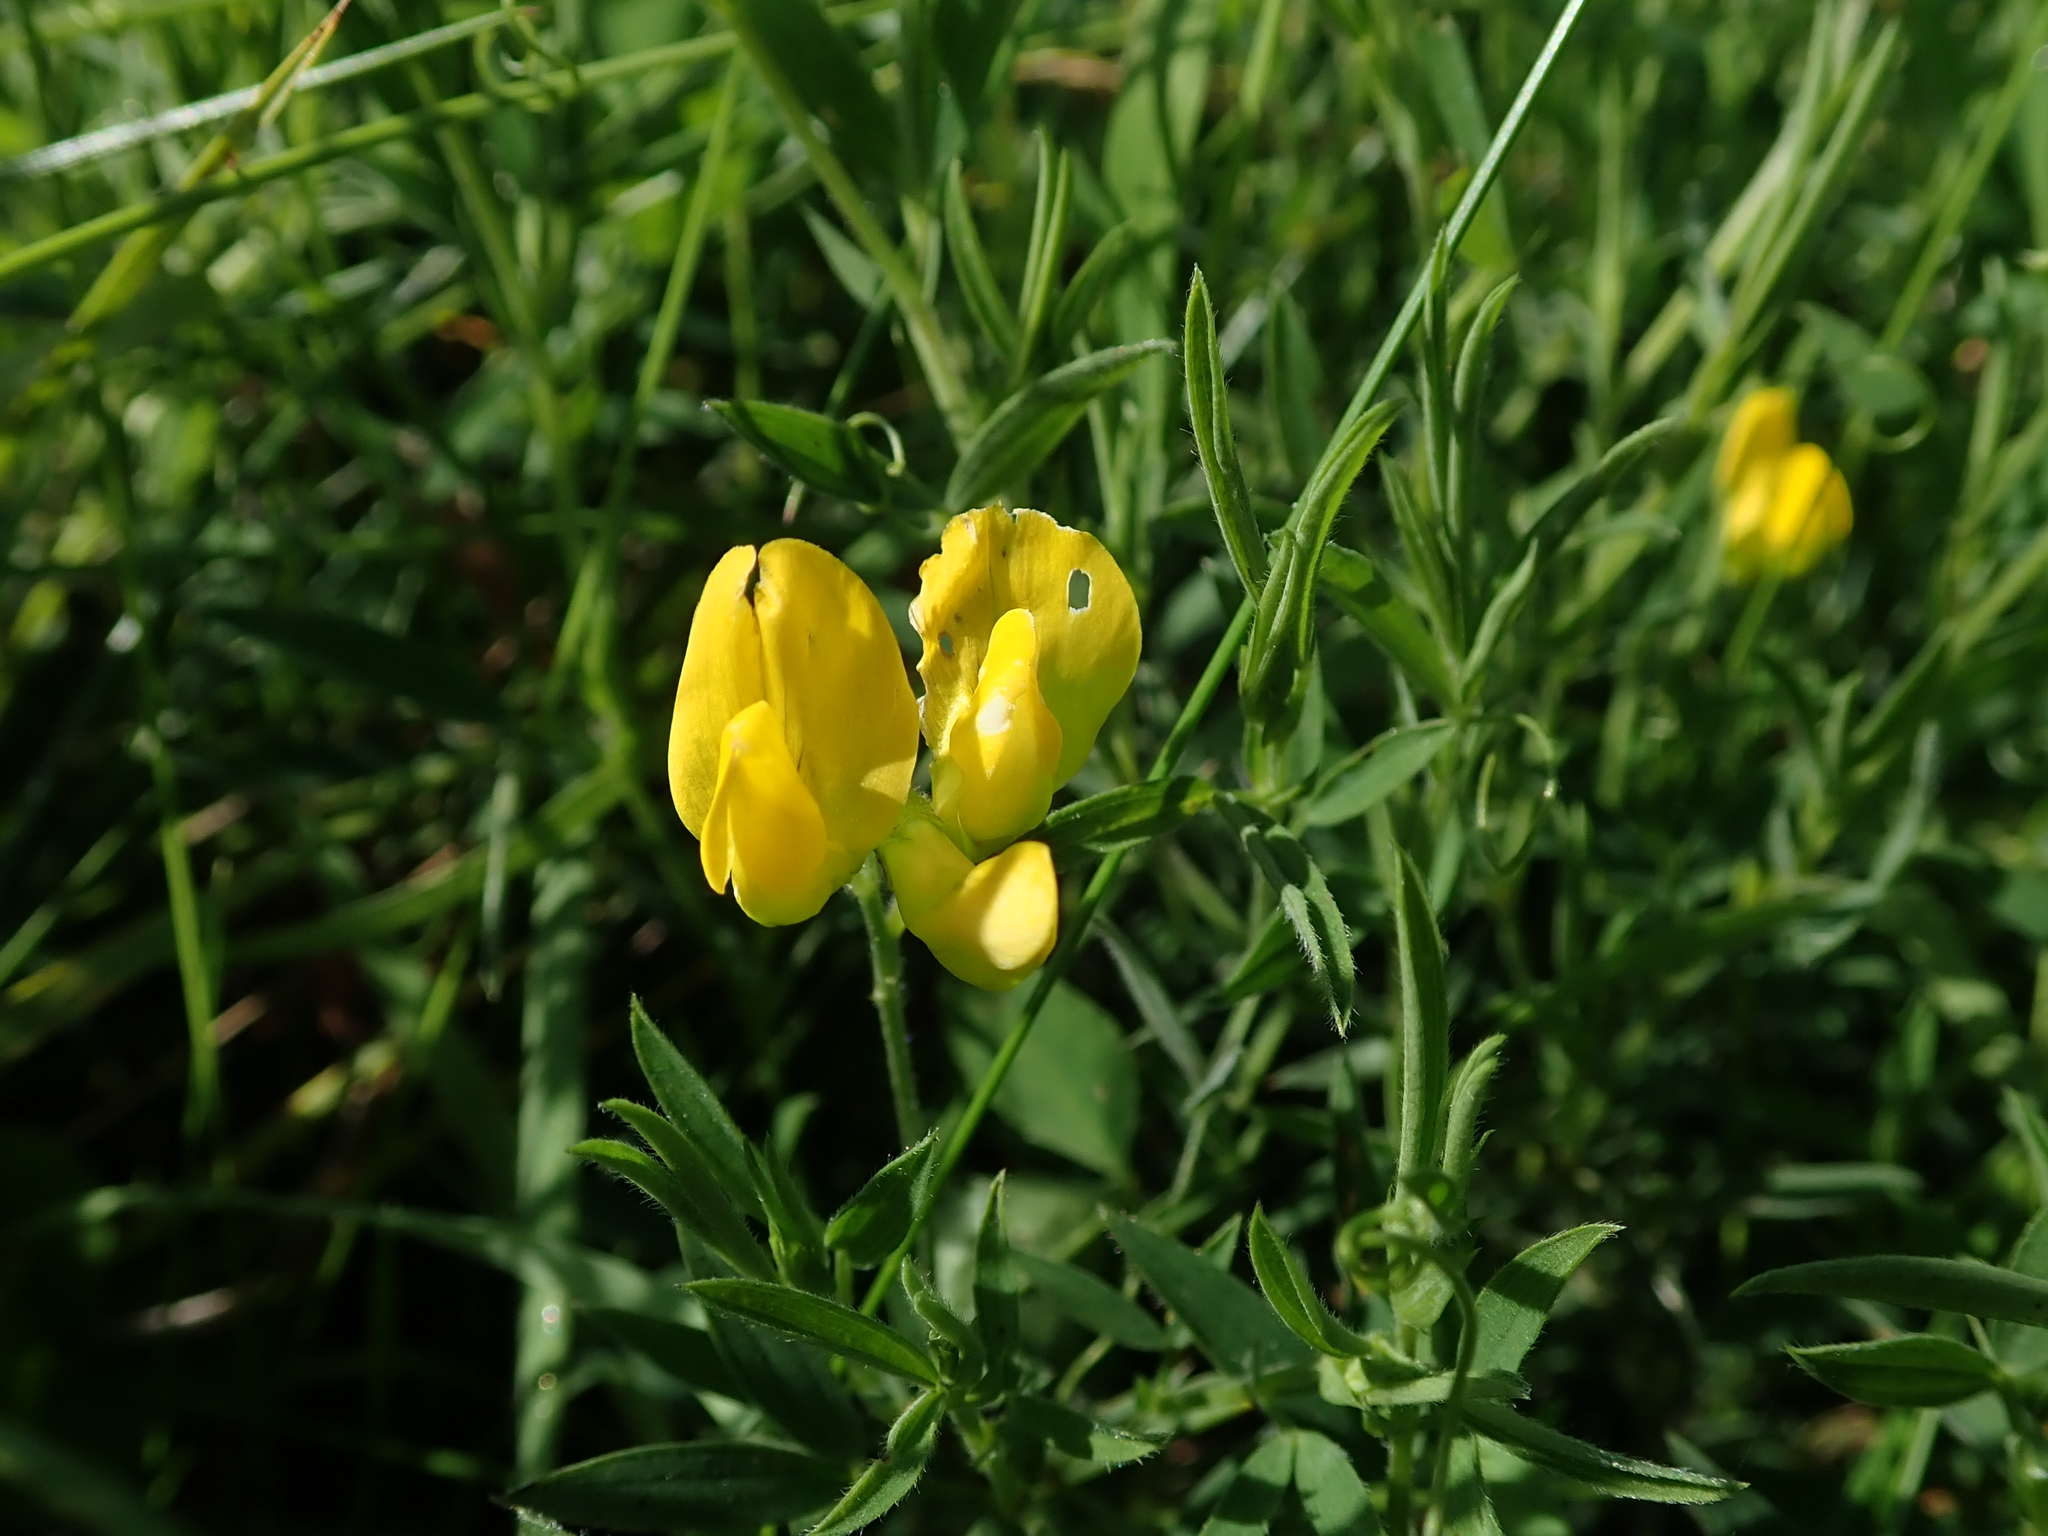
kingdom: Plantae
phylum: Tracheophyta
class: Magnoliopsida
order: Fabales
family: Fabaceae
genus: Lathyrus
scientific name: Lathyrus pratensis
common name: Meadow vetchling
